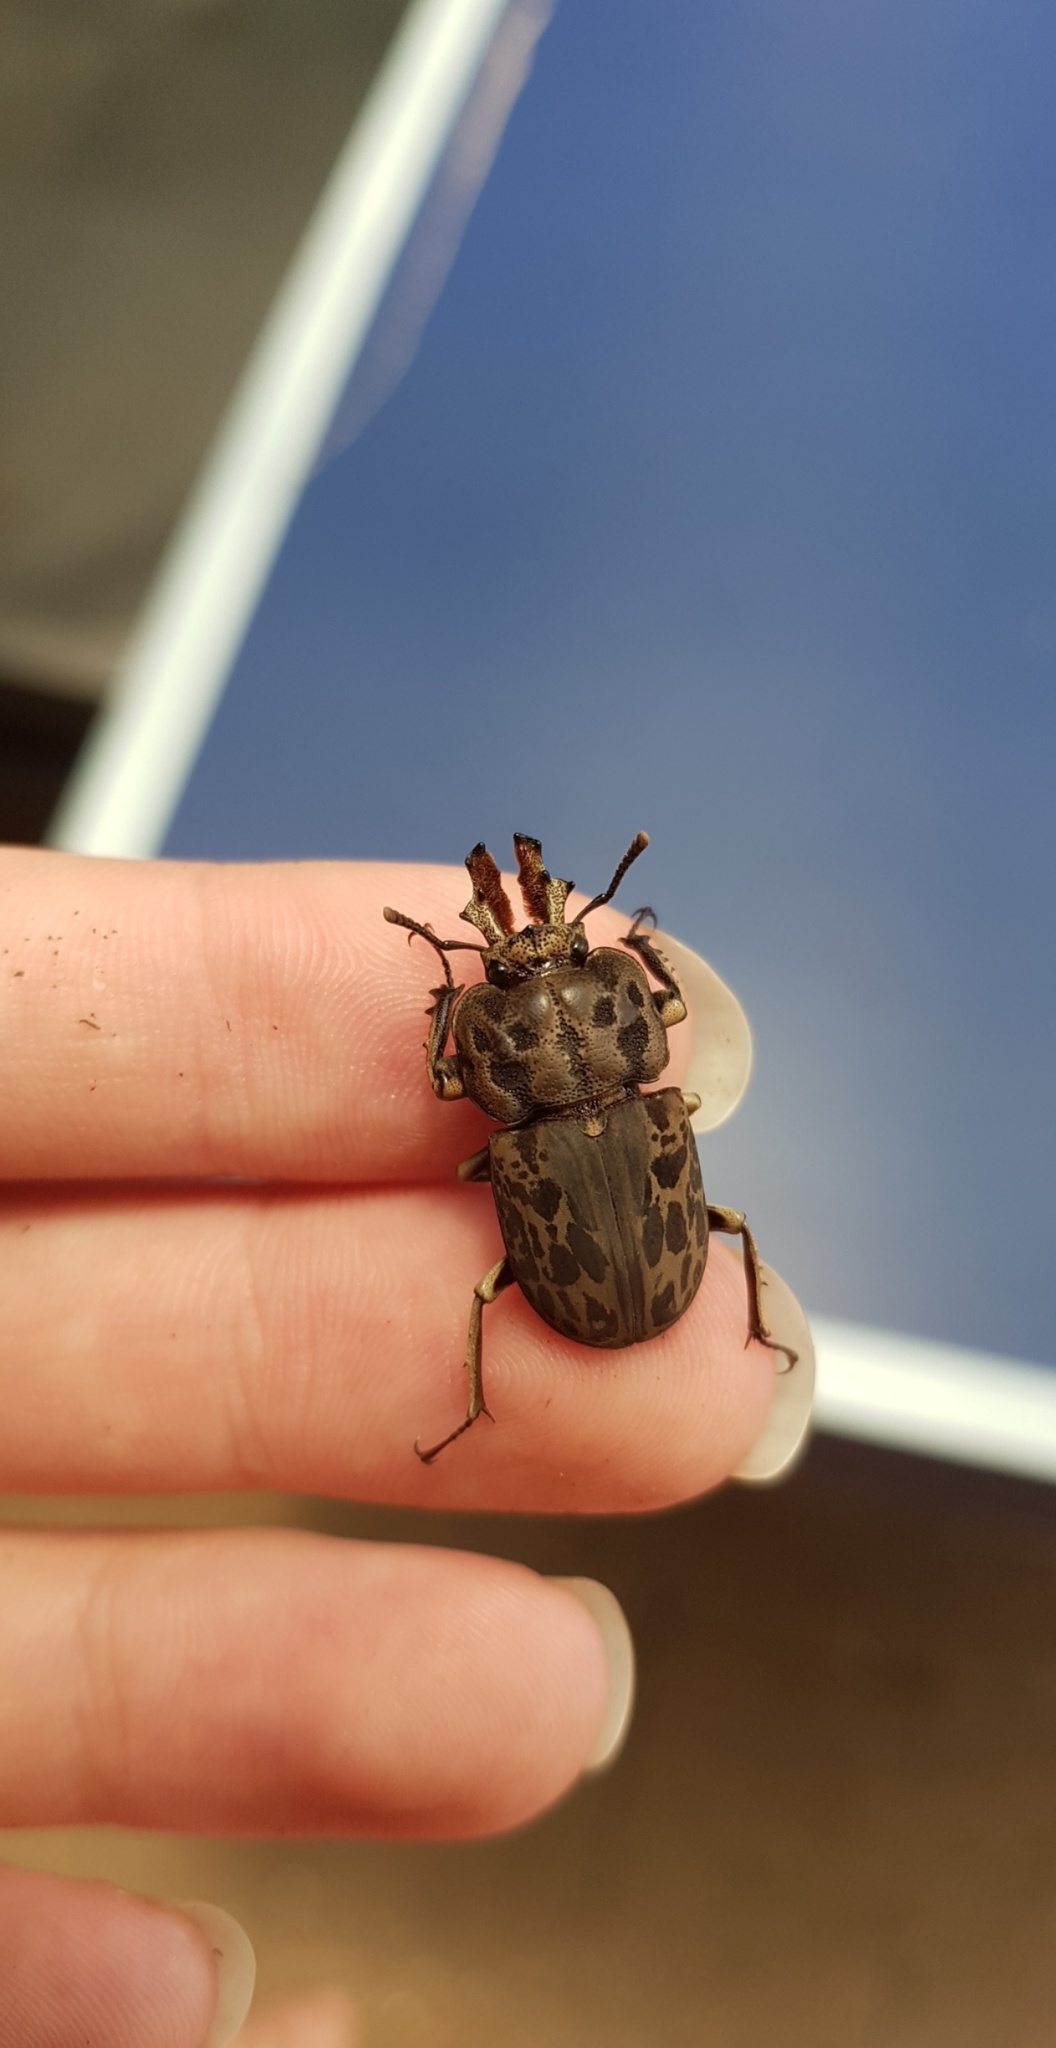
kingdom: Animalia
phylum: Arthropoda
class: Insecta
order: Coleoptera
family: Lucanidae
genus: Ryssonotus
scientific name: Ryssonotus nebulosus
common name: Brown stag beetle
